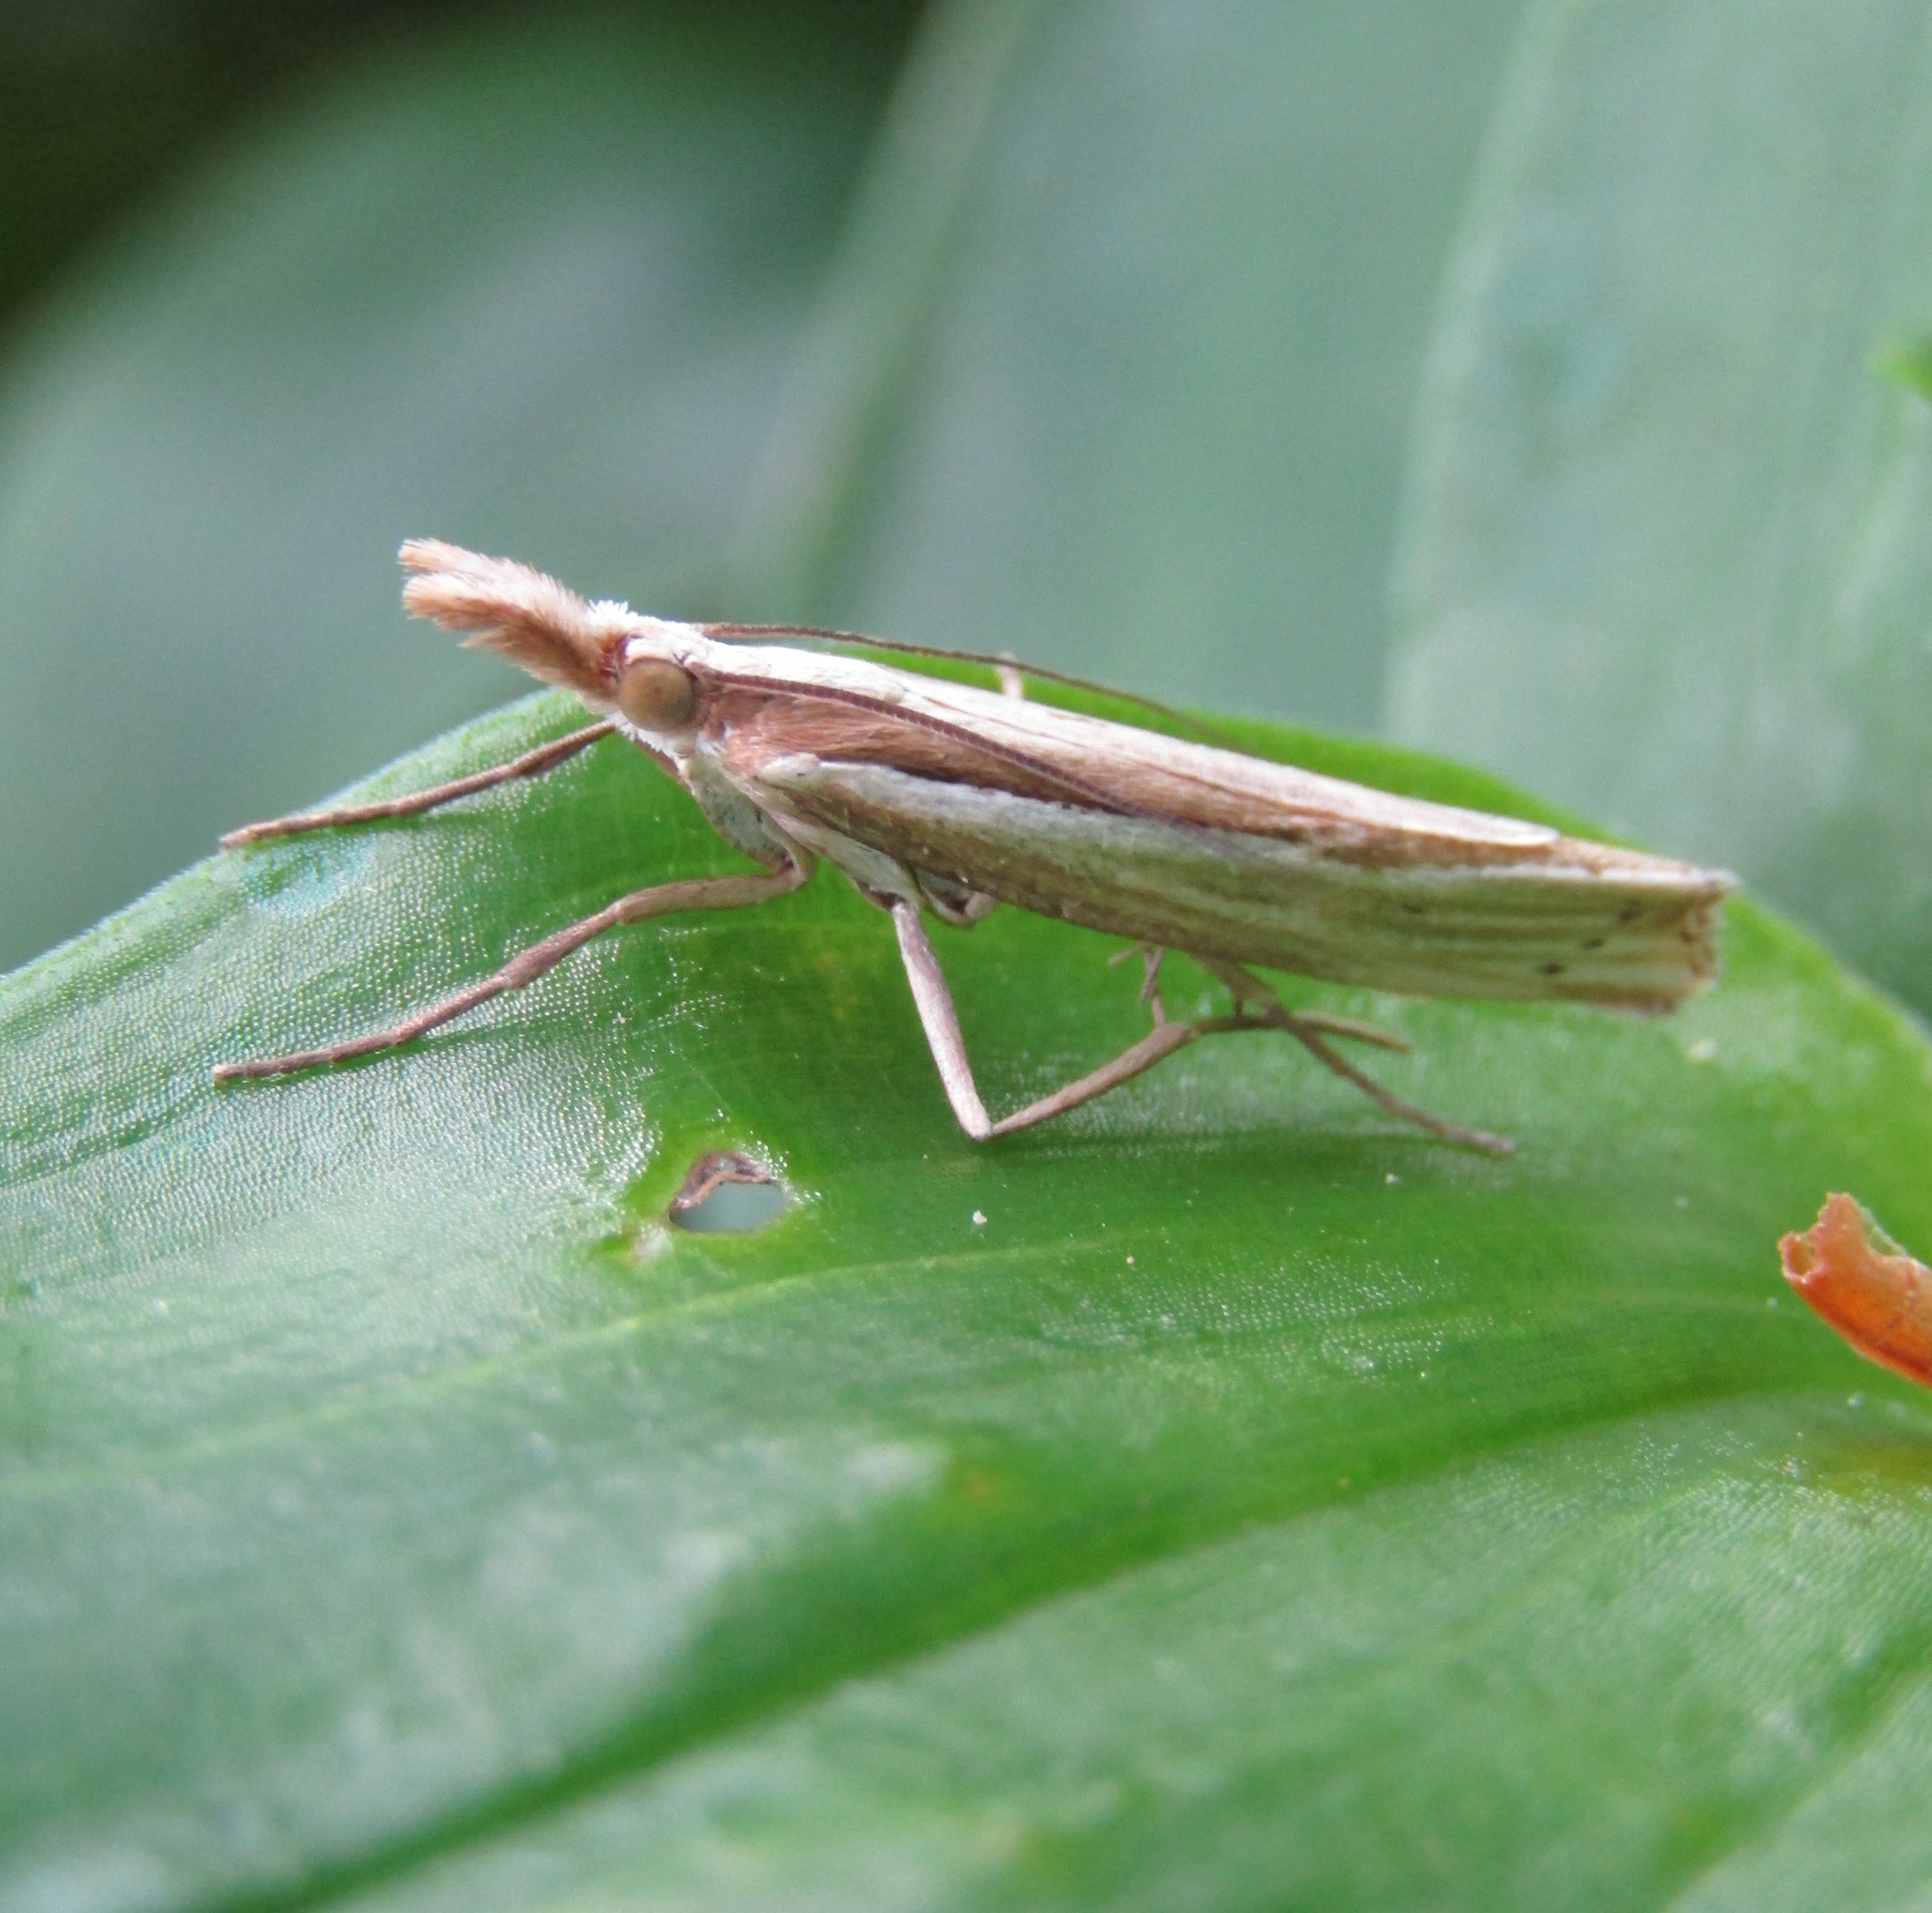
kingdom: Animalia
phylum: Arthropoda
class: Insecta
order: Lepidoptera
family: Crambidae
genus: Orocrambus
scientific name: Orocrambus ramosellus
